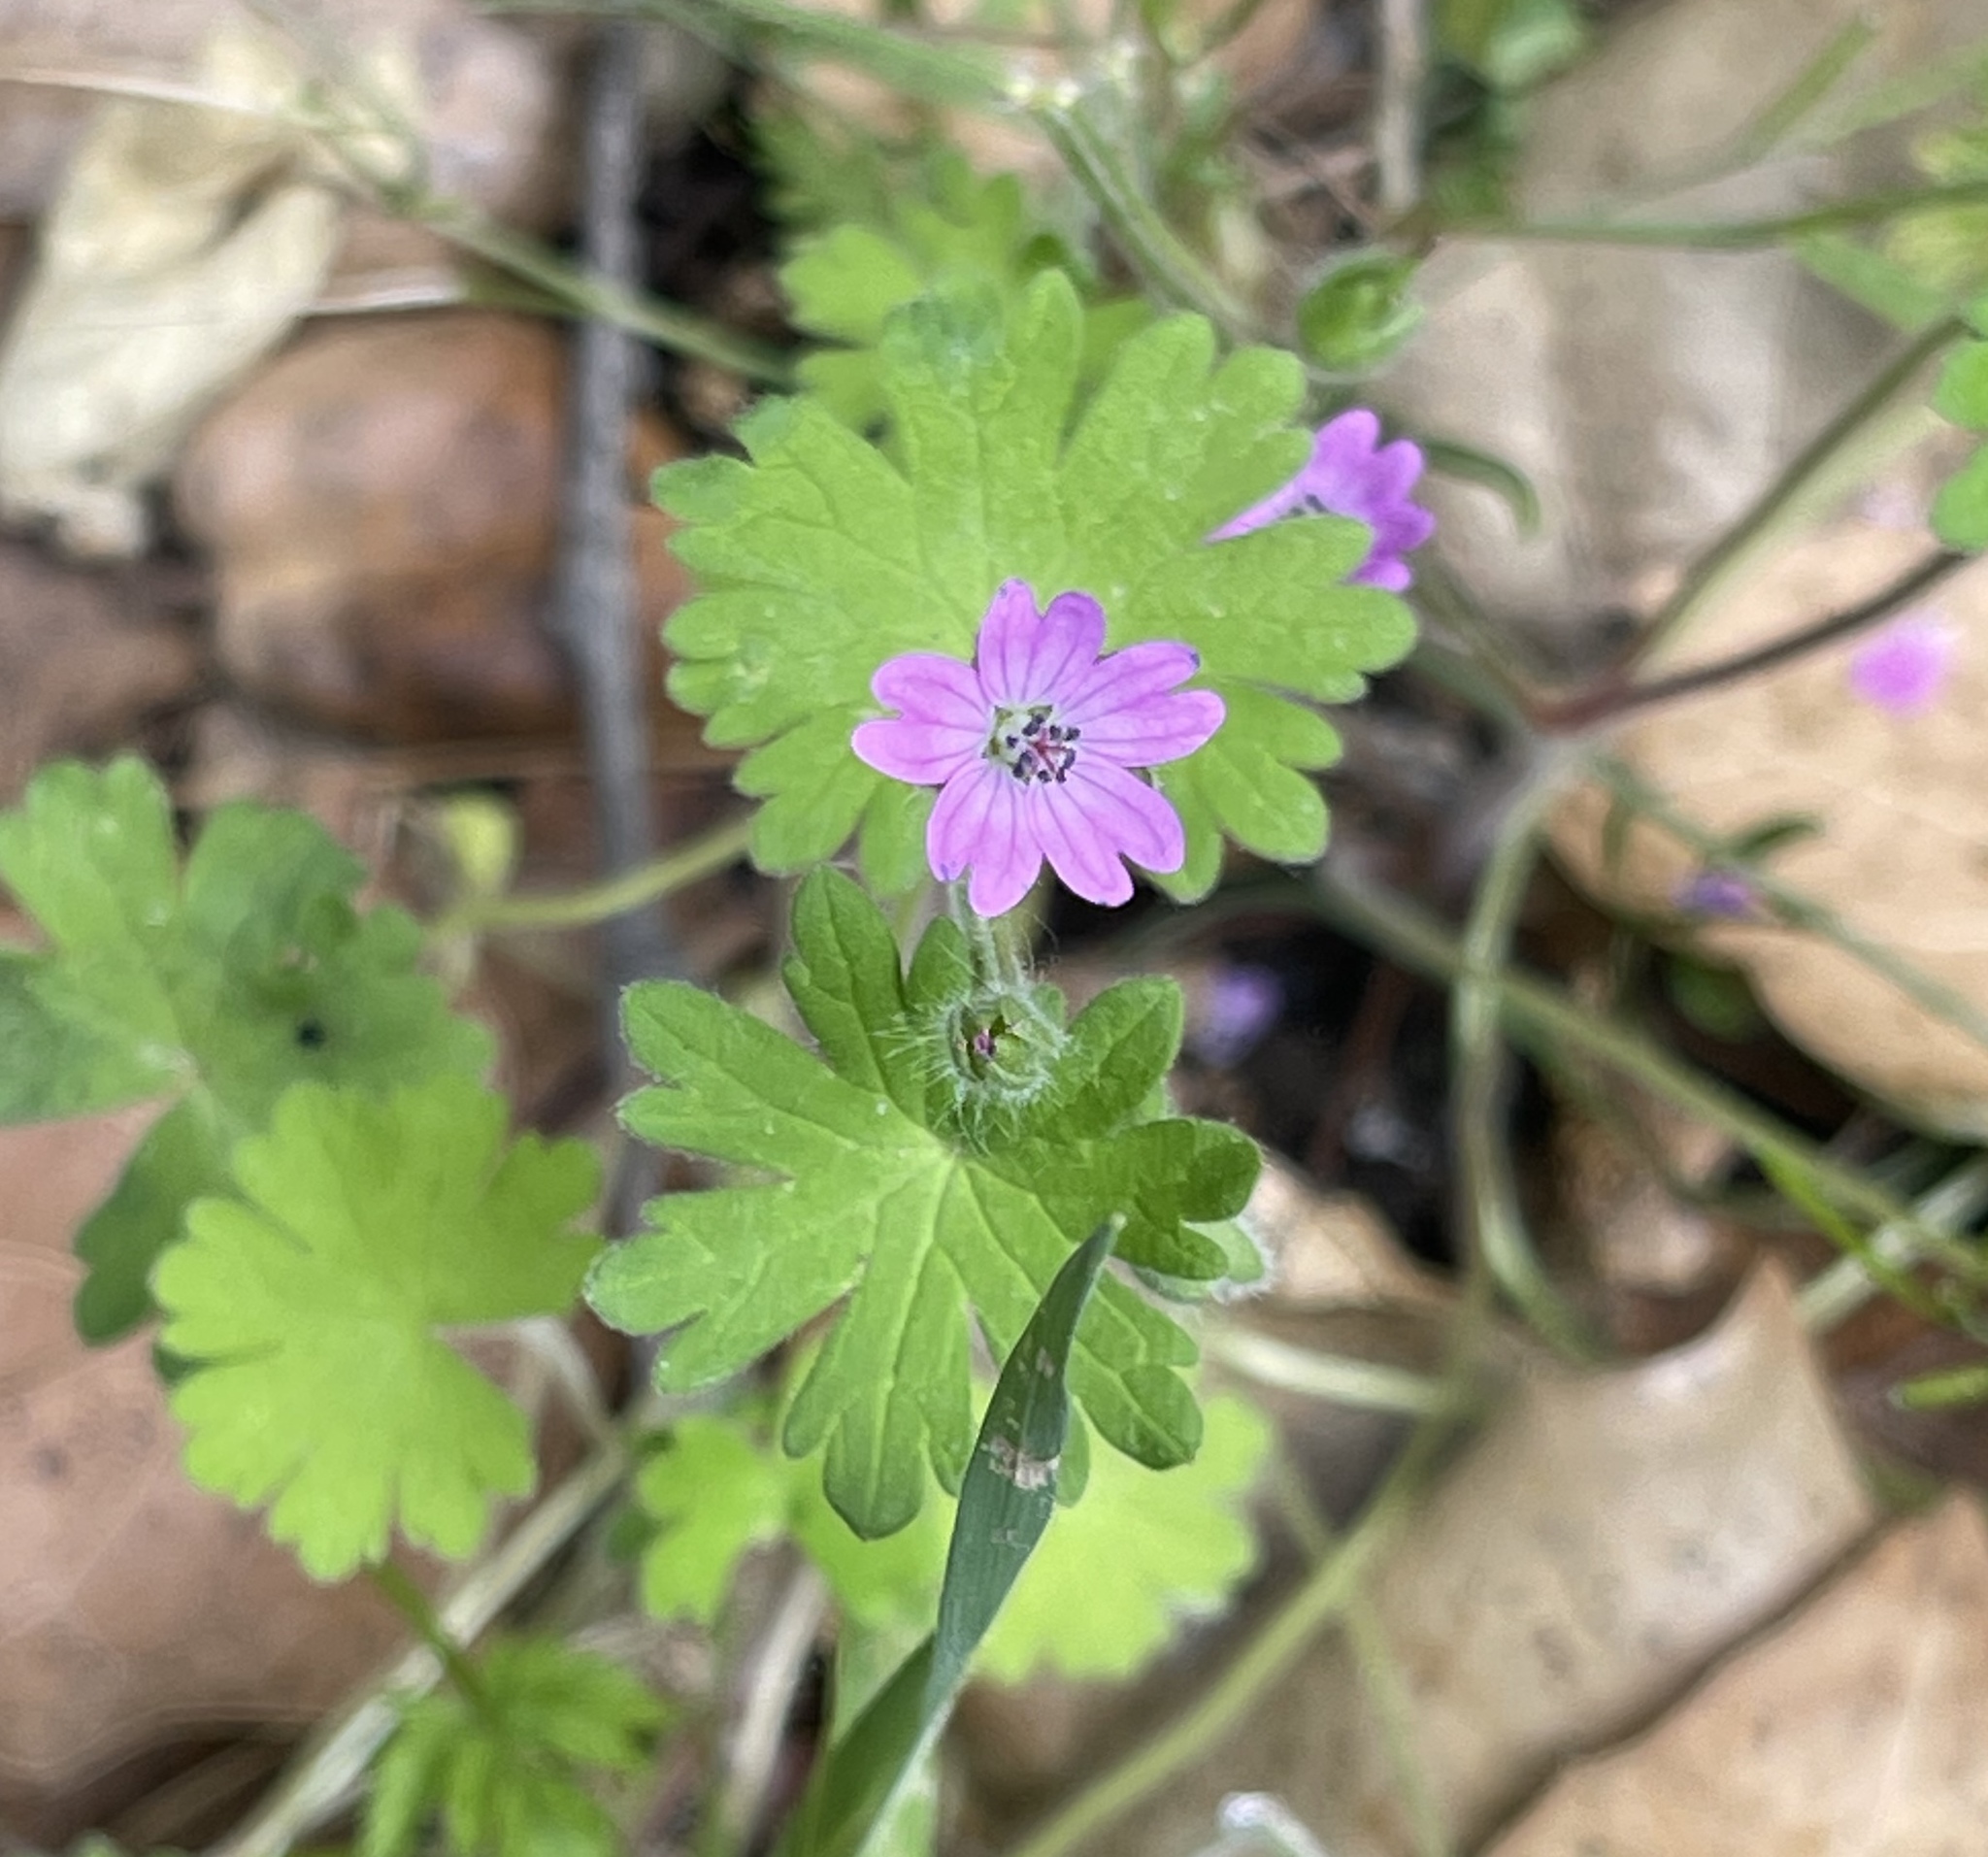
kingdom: Plantae
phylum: Tracheophyta
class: Magnoliopsida
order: Geraniales
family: Geraniaceae
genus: Geranium
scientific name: Geranium molle
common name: Dove's-foot crane's-bill
